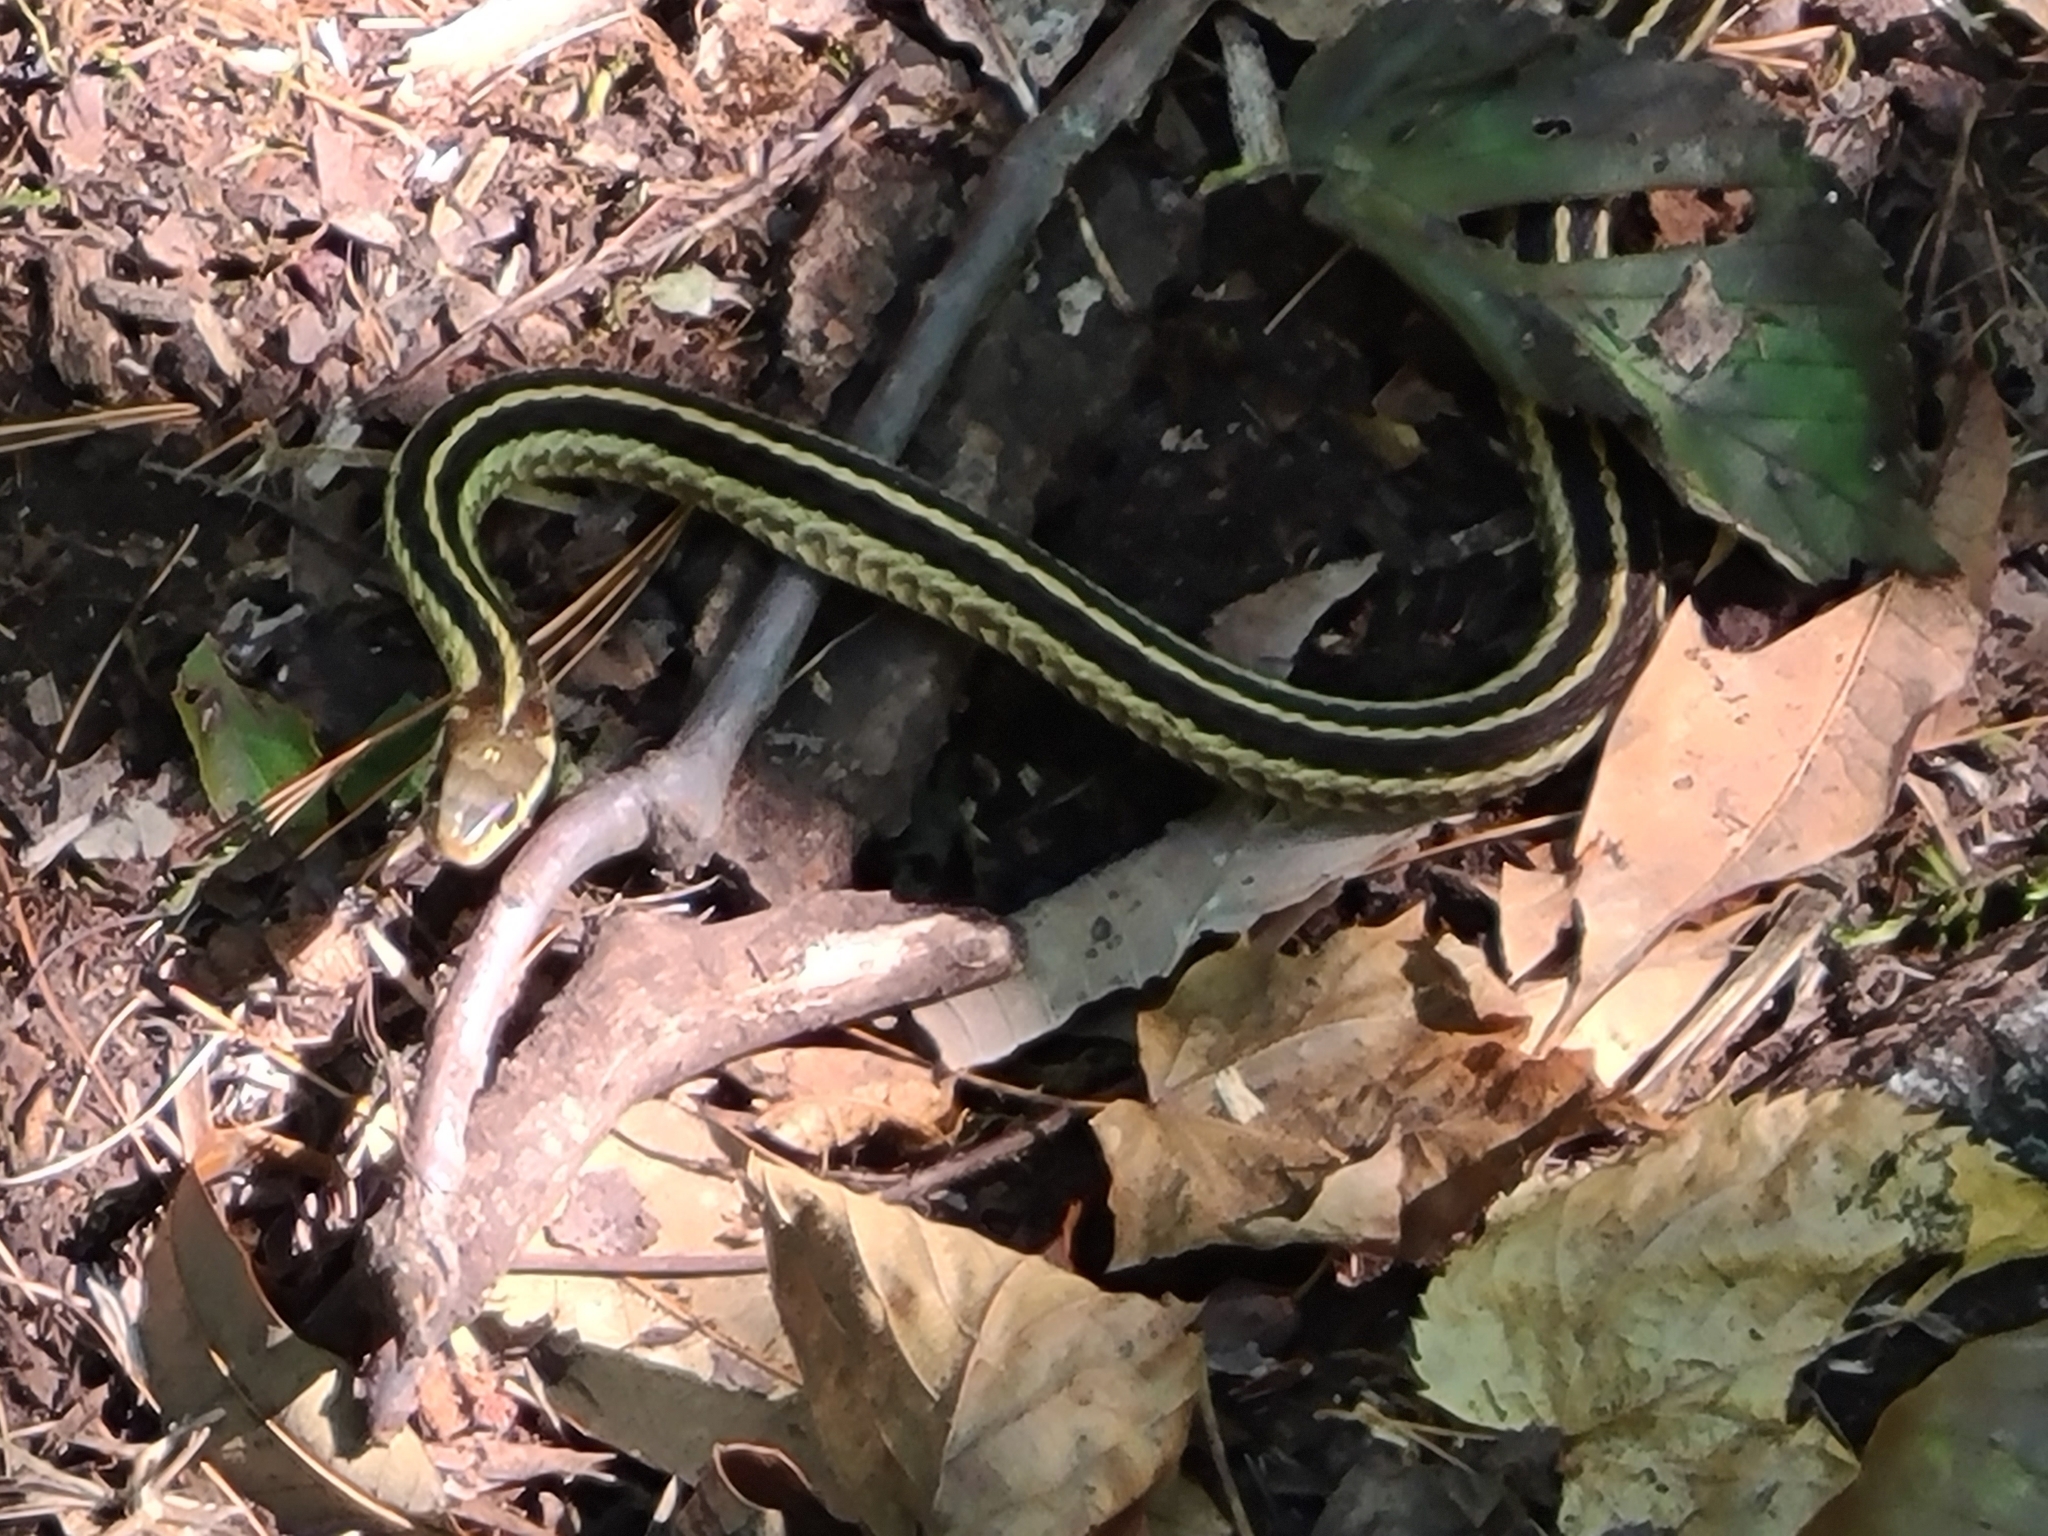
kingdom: Animalia
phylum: Chordata
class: Squamata
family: Colubridae
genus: Thamnophis
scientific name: Thamnophis sirtalis
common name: Common garter snake
